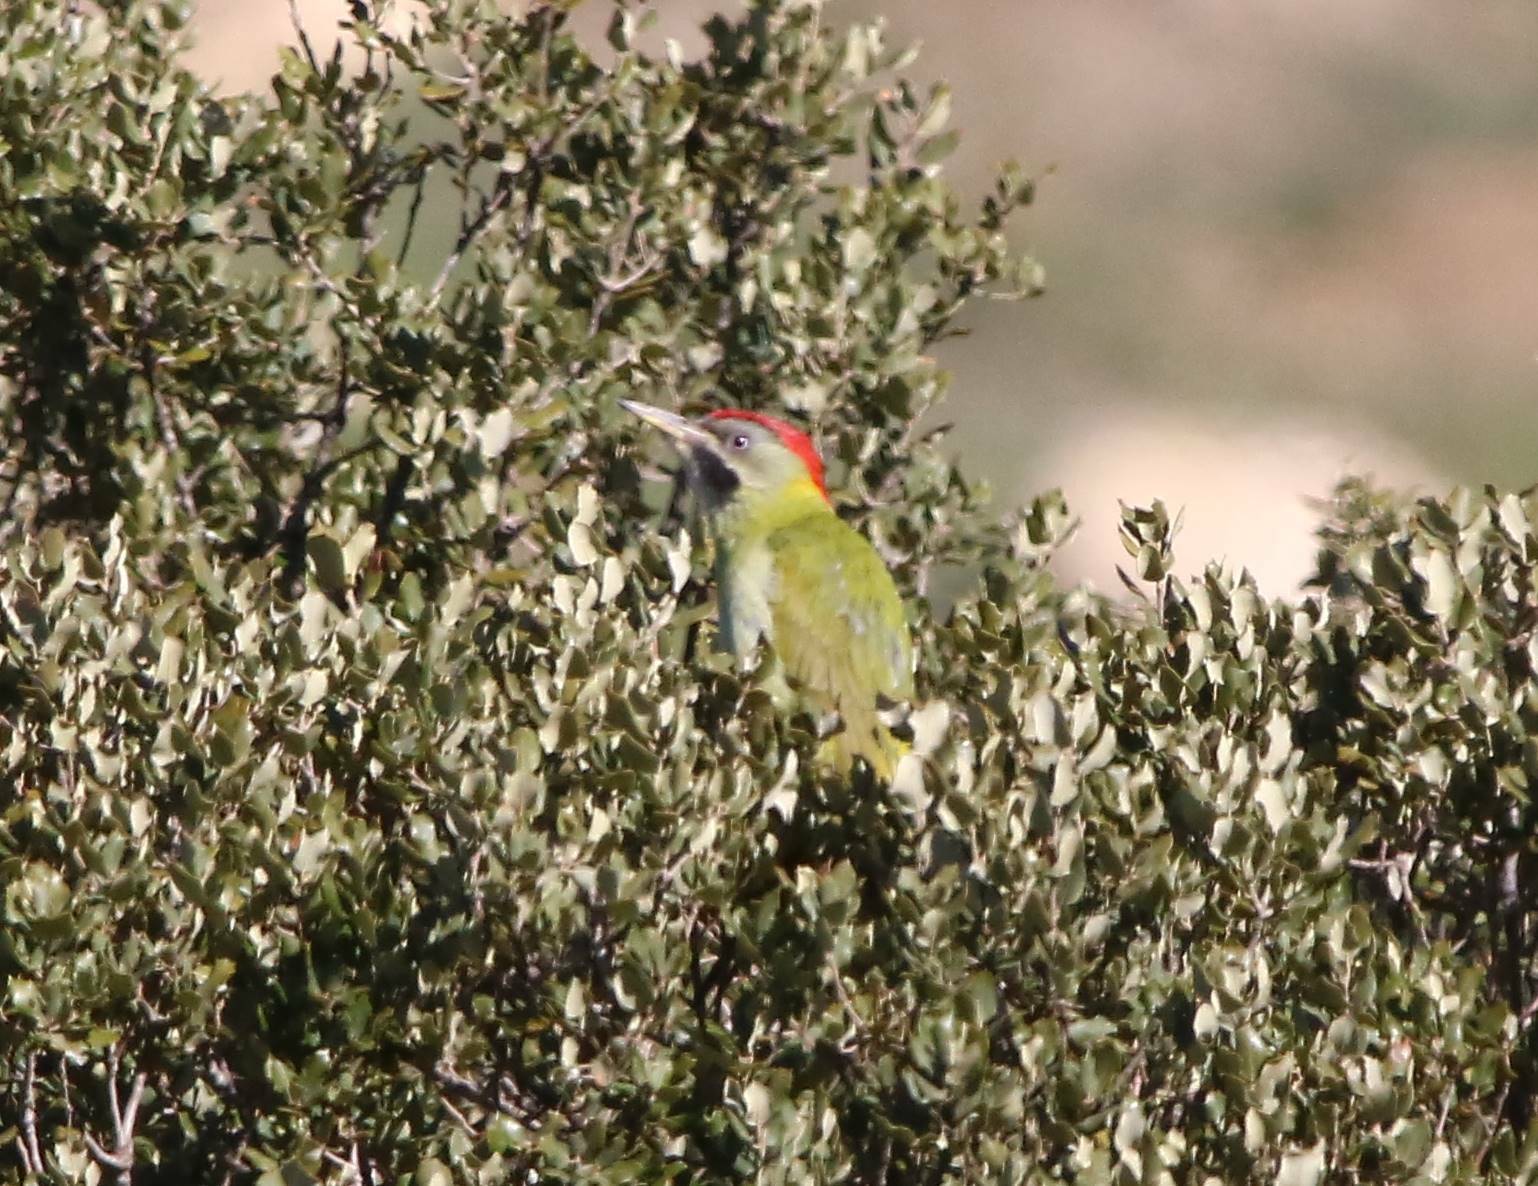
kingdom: Animalia
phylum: Chordata
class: Aves
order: Piciformes
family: Picidae
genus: Picus
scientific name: Picus vaillantii
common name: Levaillant's woodpecker
